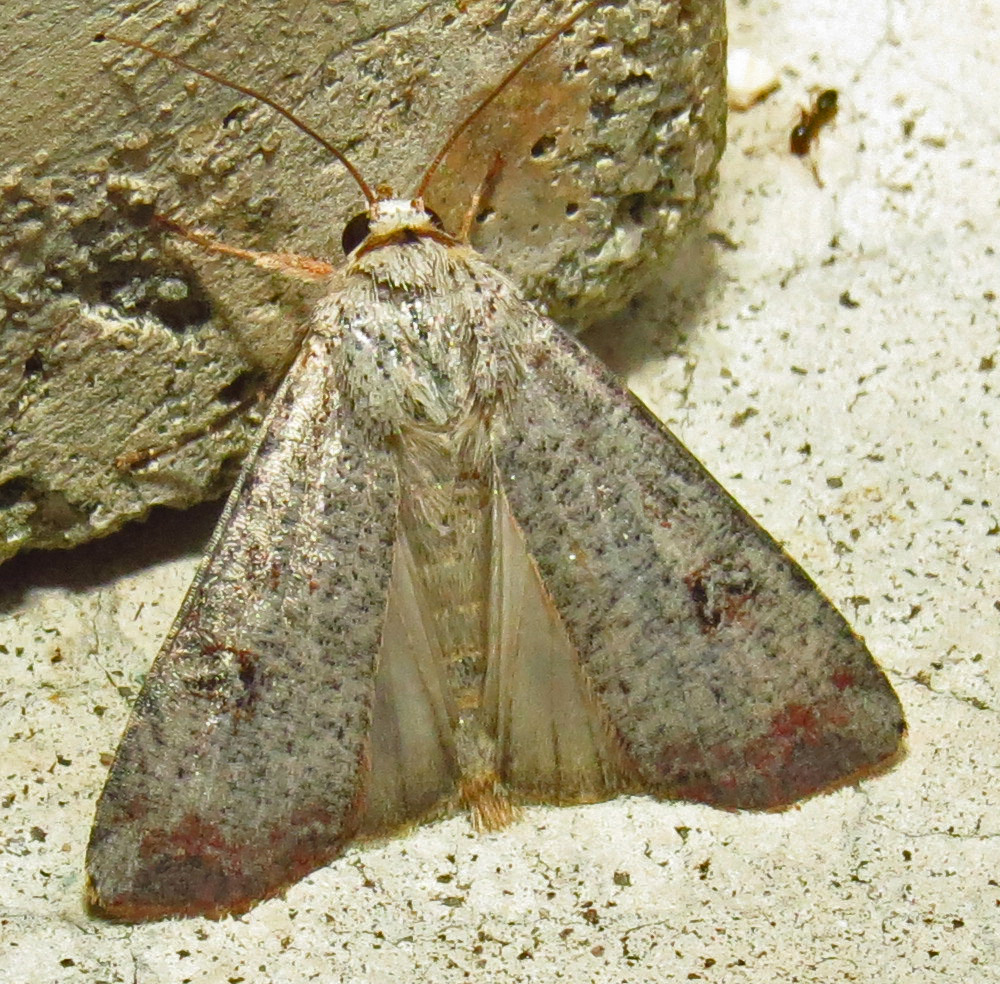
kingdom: Animalia
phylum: Arthropoda
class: Insecta
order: Lepidoptera
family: Noctuidae
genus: Anicla
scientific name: Anicla infecta
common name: Green cutworm
